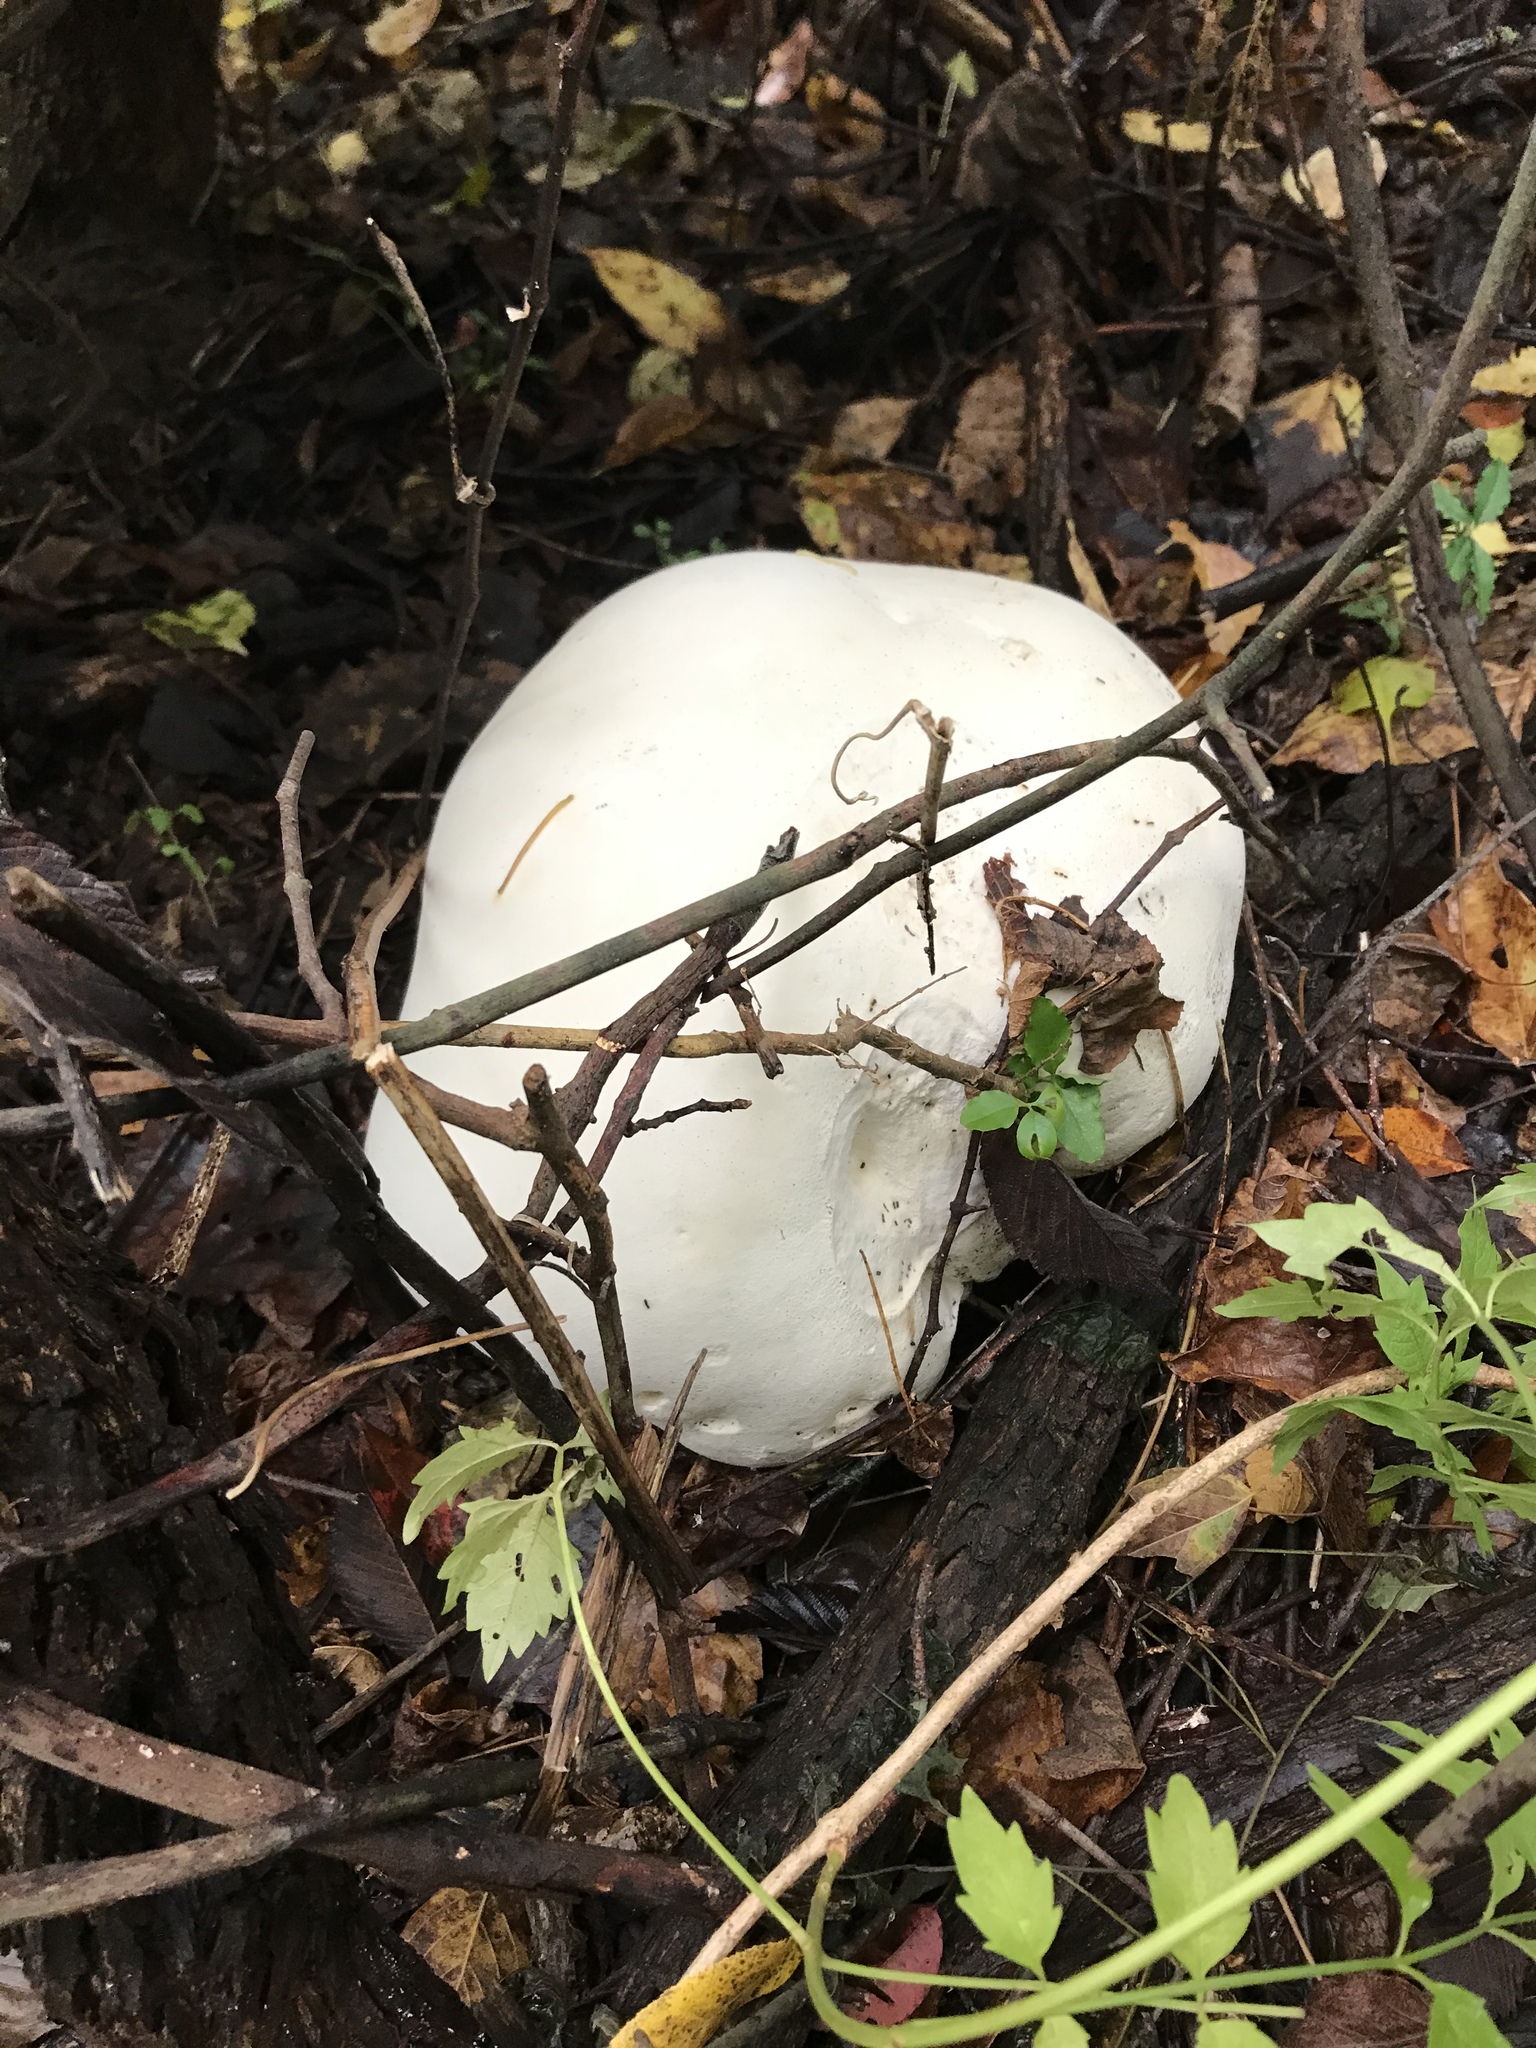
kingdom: Fungi
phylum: Basidiomycota
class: Agaricomycetes
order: Agaricales
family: Lycoperdaceae
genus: Calvatia
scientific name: Calvatia gigantea
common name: Giant puffball
